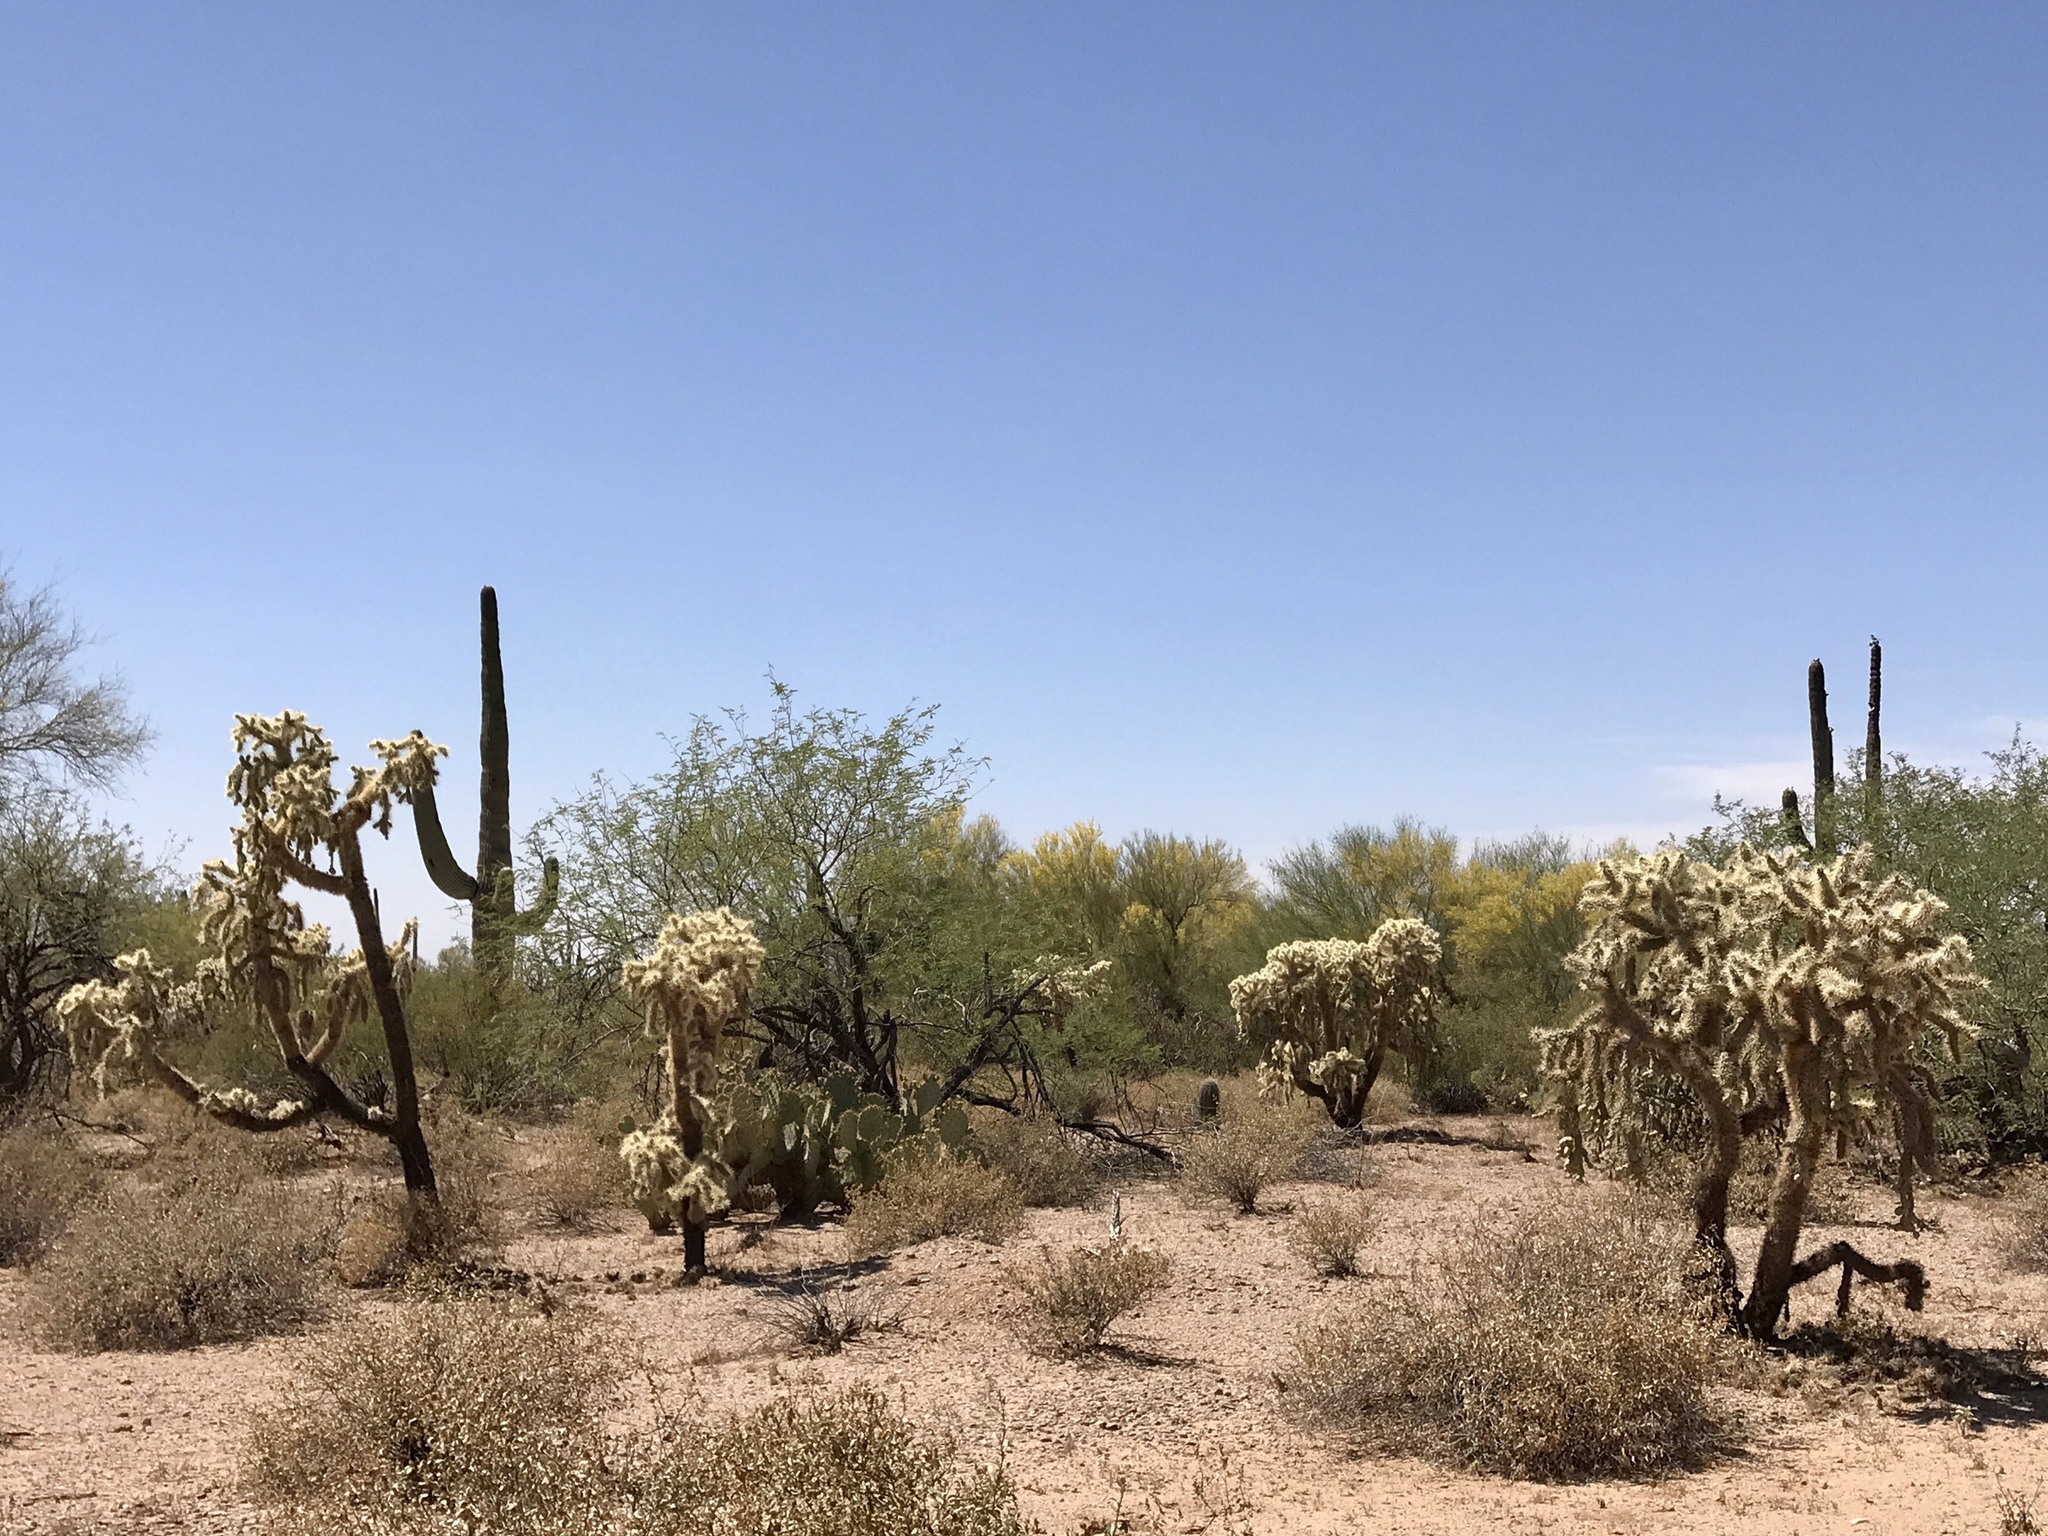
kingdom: Plantae
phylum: Tracheophyta
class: Magnoliopsida
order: Caryophyllales
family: Cactaceae
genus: Cylindropuntia
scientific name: Cylindropuntia fulgida
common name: Jumping cholla
